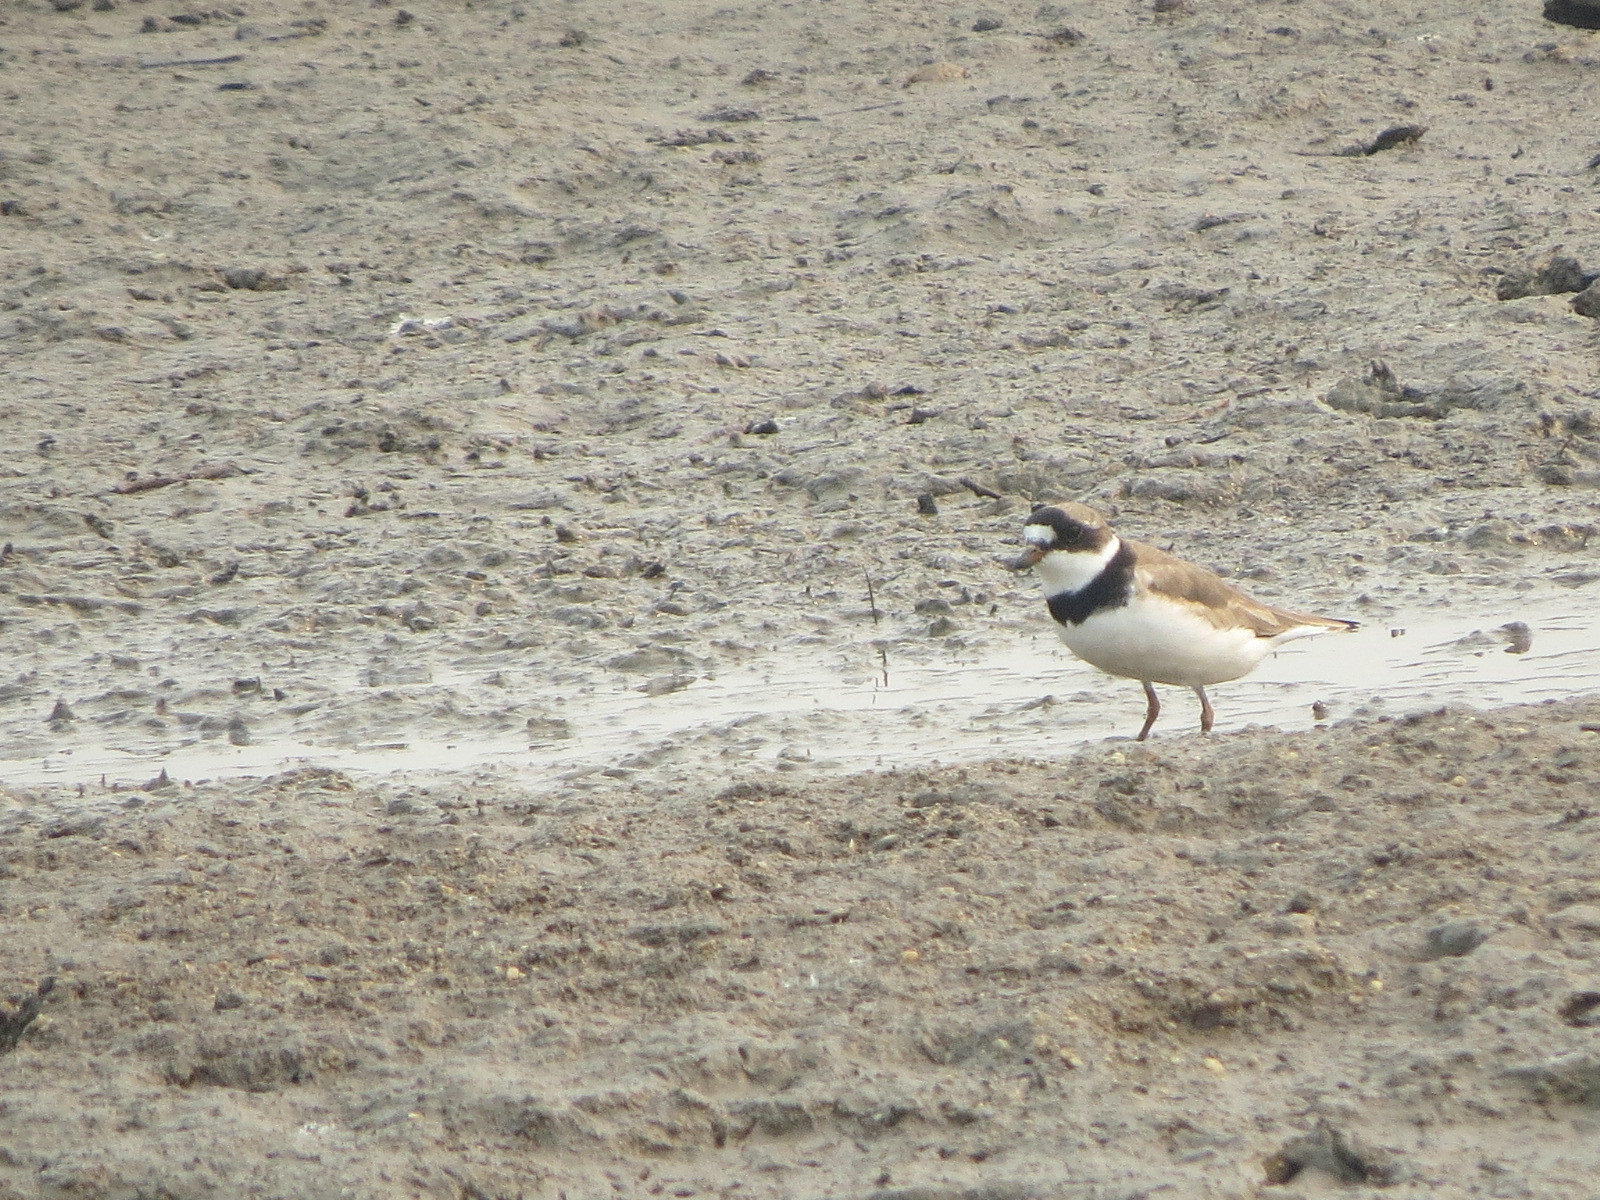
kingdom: Animalia
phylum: Chordata
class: Aves
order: Charadriiformes
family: Charadriidae
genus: Charadrius
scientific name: Charadrius semipalmatus
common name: Semipalmated plover
